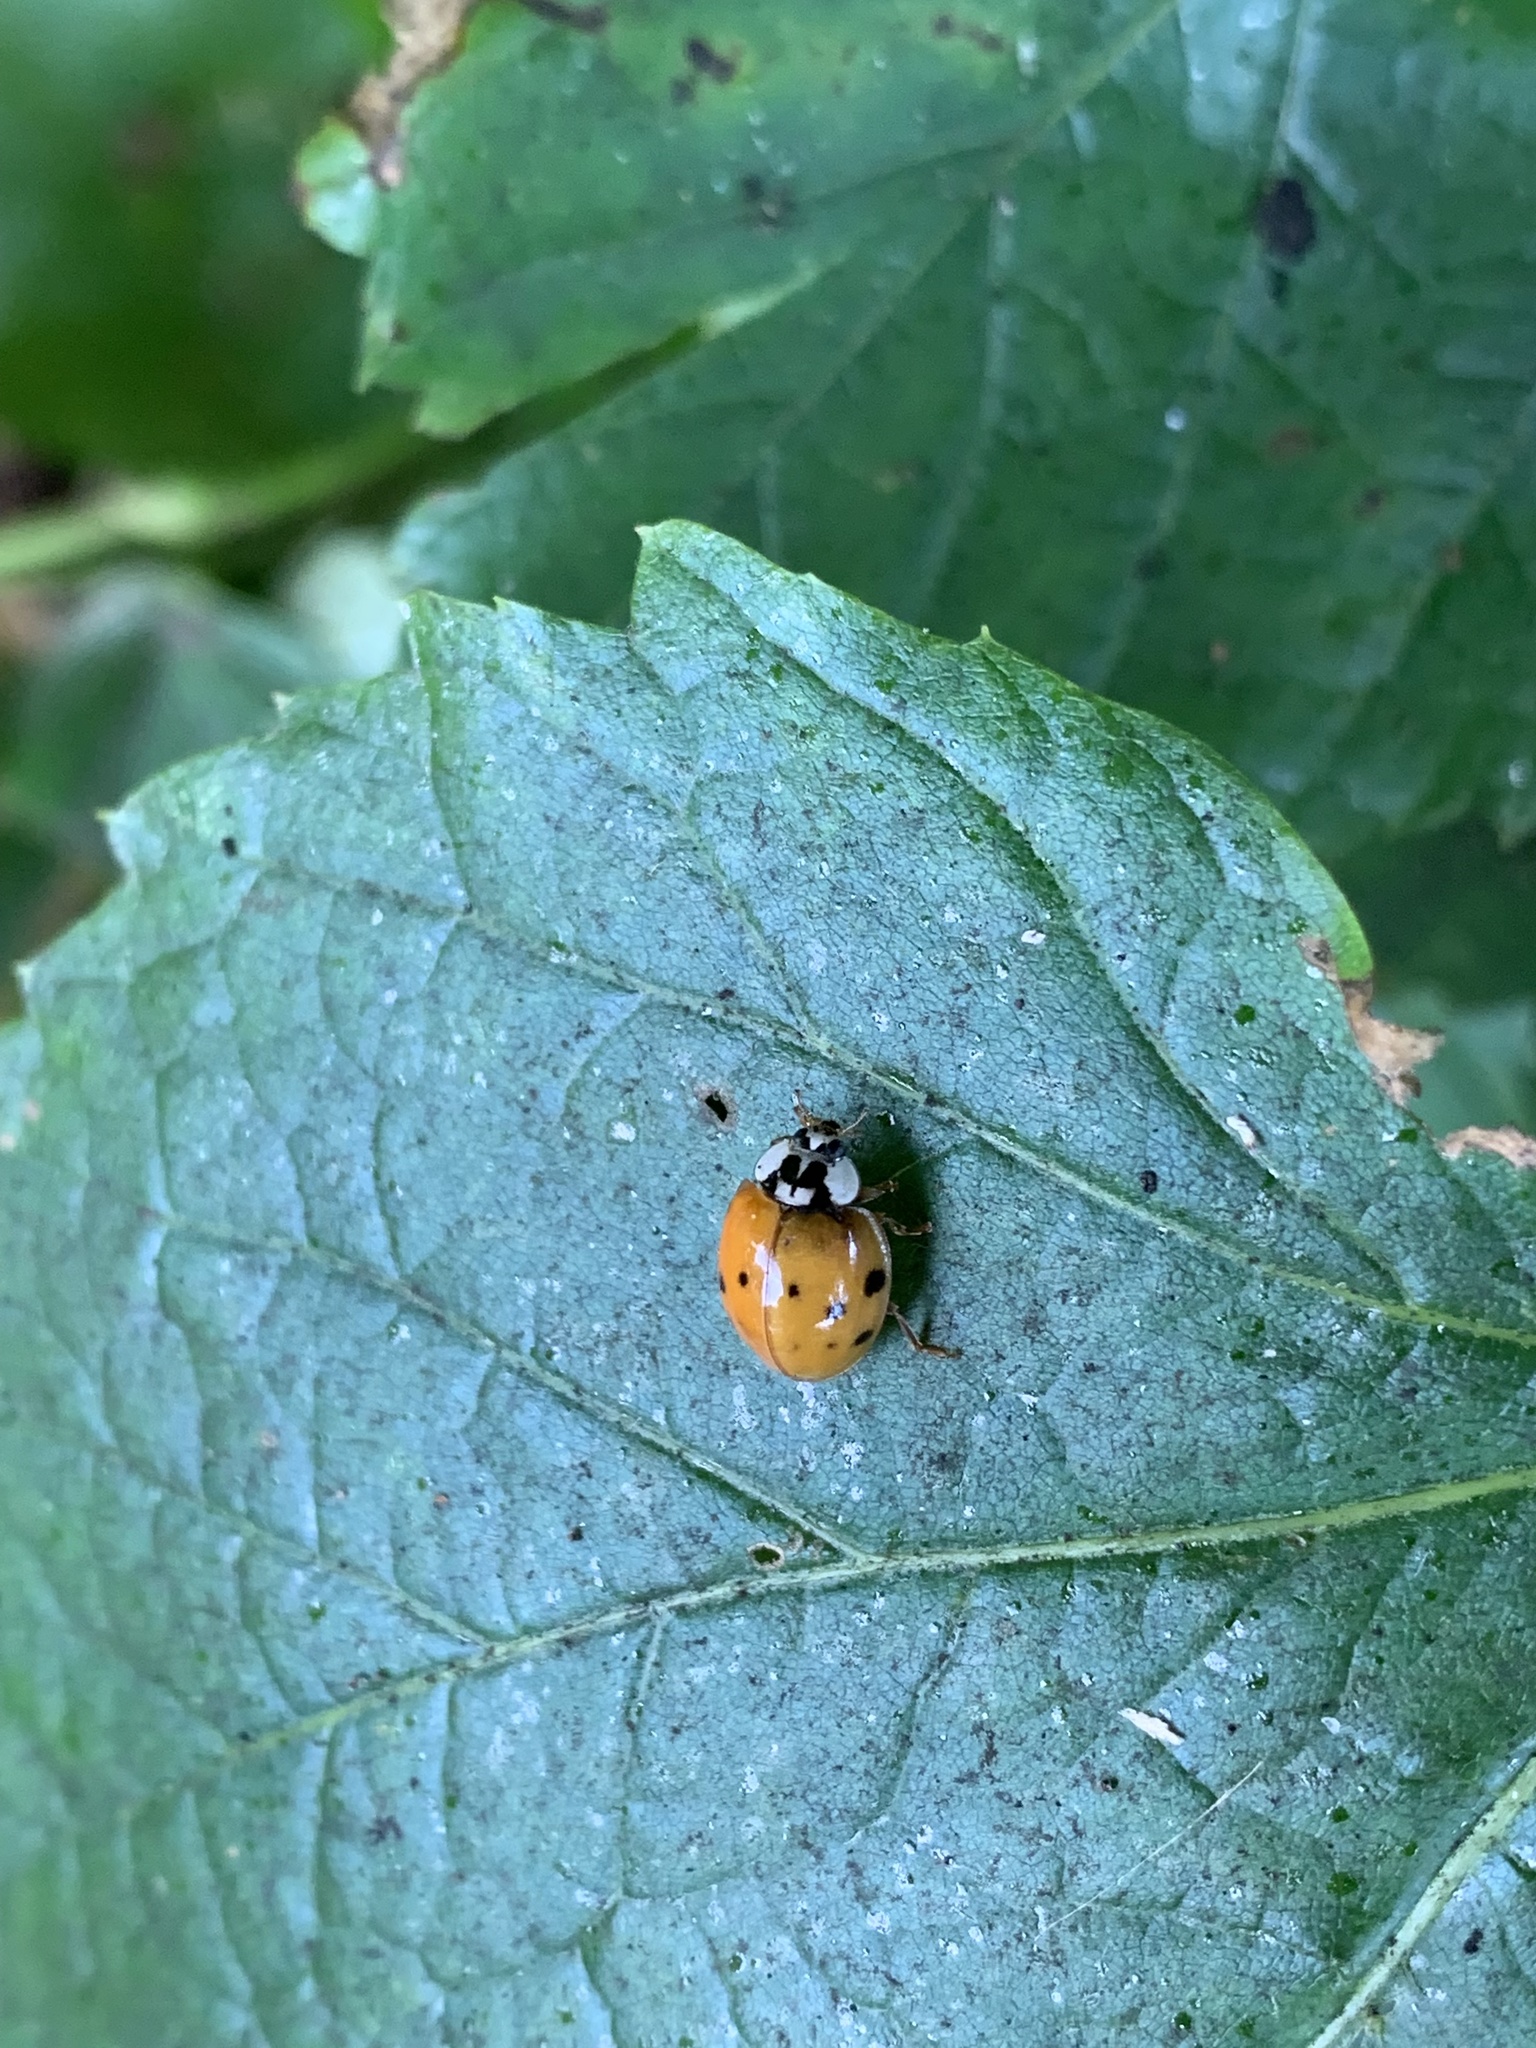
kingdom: Animalia
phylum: Arthropoda
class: Insecta
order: Coleoptera
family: Coccinellidae
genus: Harmonia
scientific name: Harmonia axyridis
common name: Harlequin ladybird
